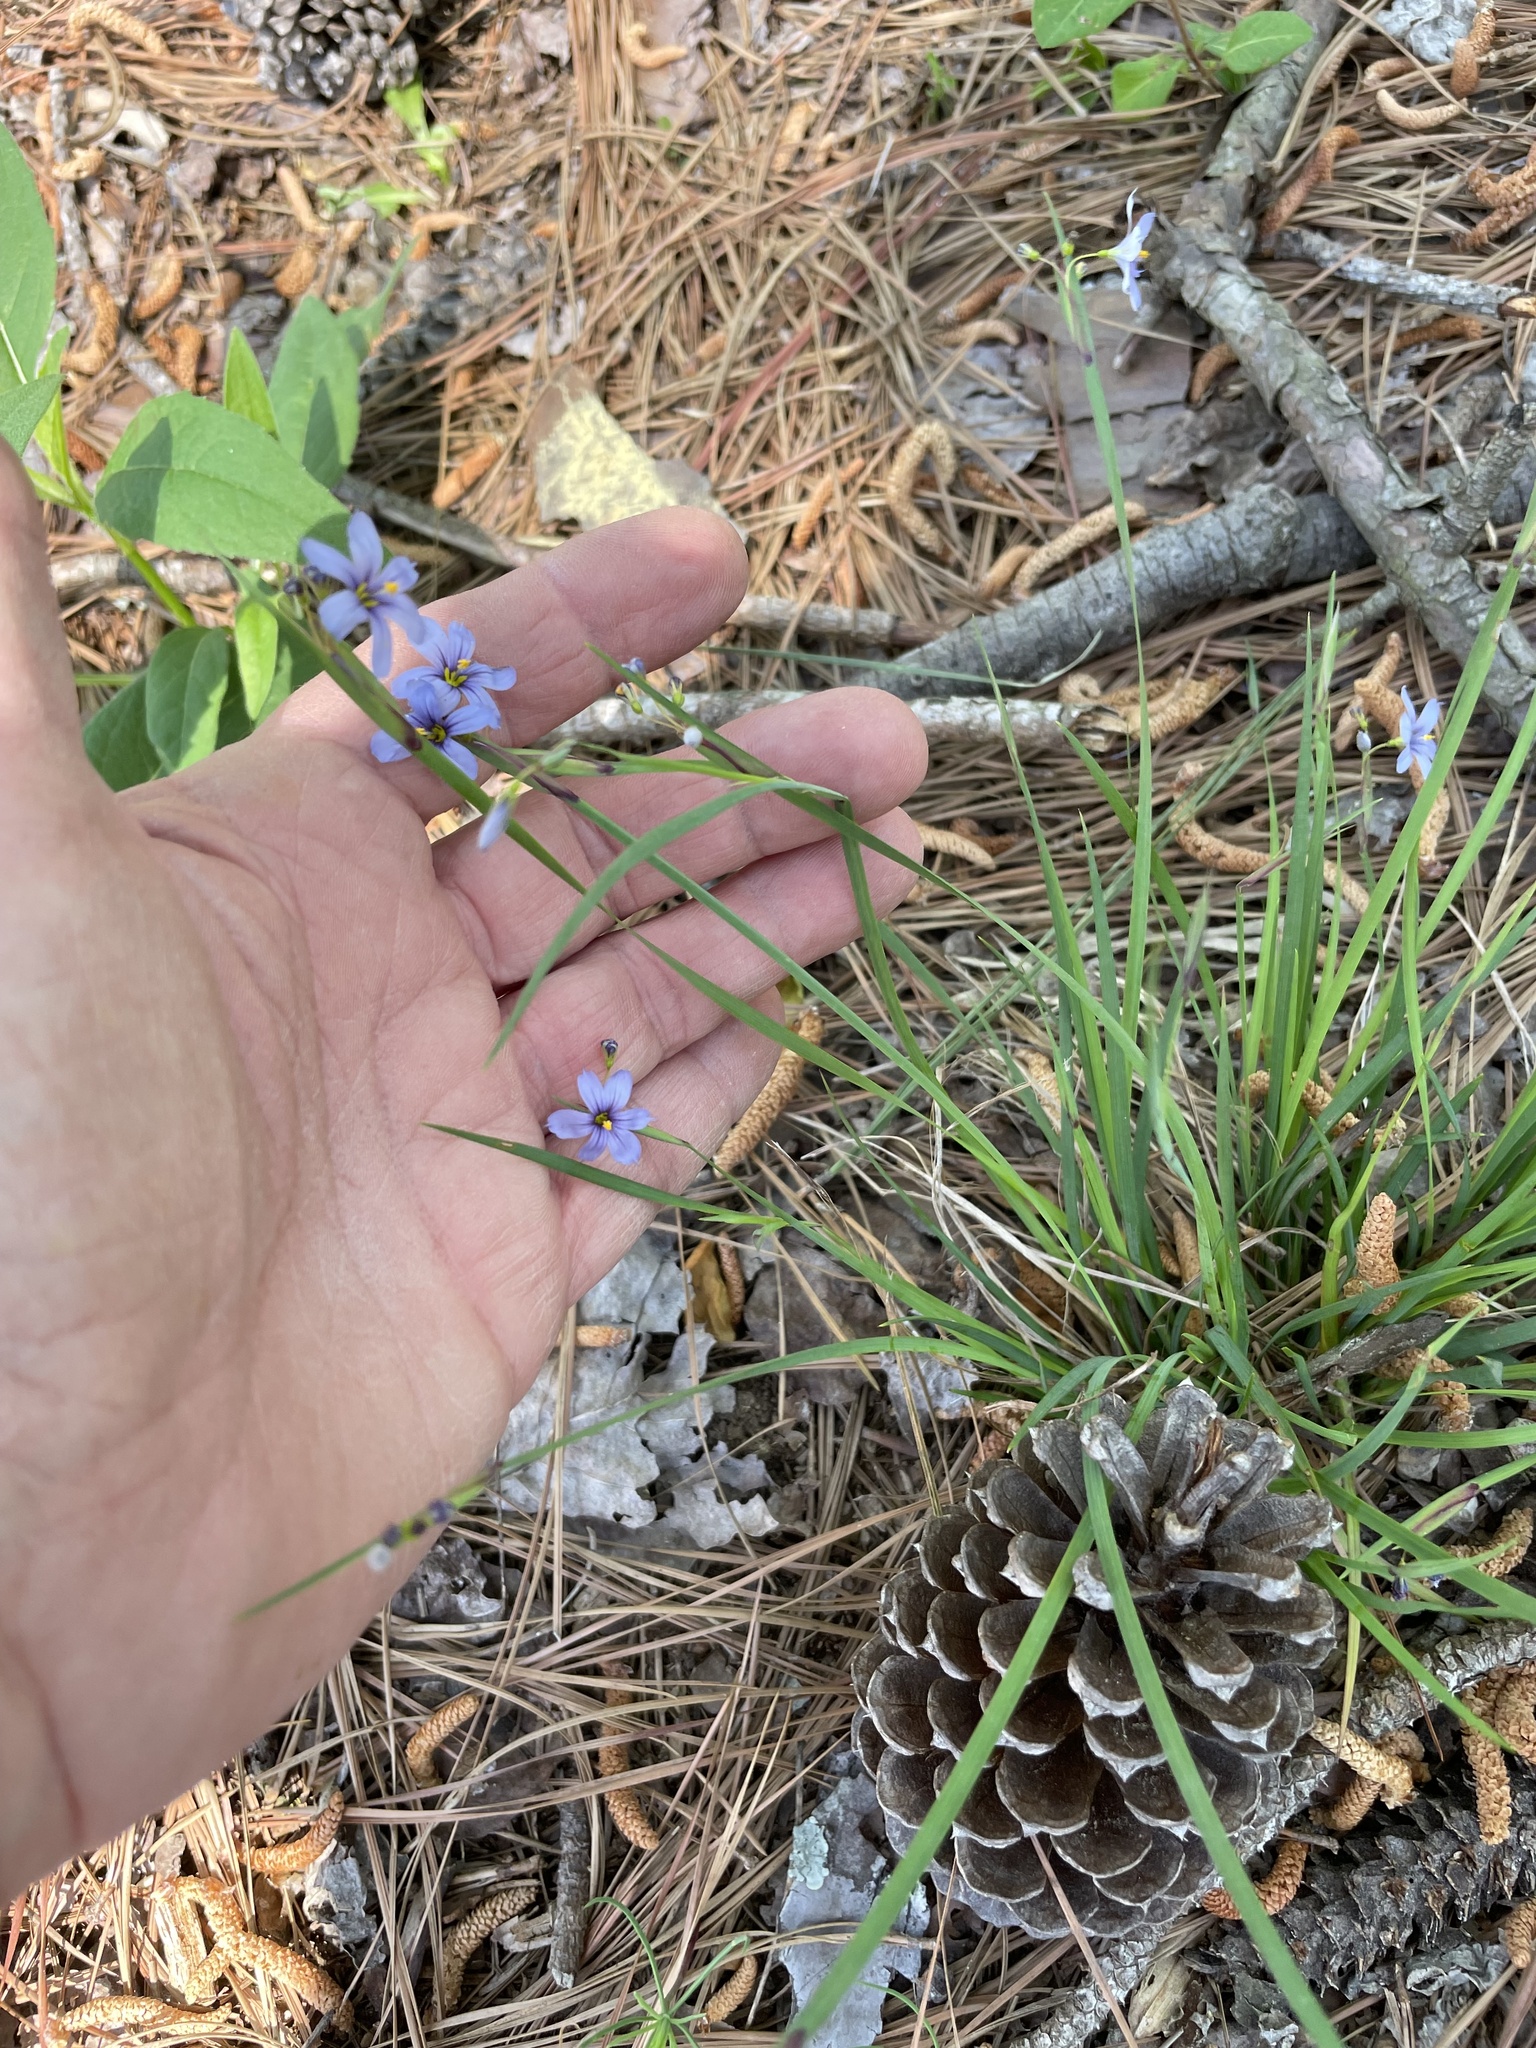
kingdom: Plantae
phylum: Tracheophyta
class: Liliopsida
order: Asparagales
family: Iridaceae
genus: Sisyrinchium
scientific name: Sisyrinchium angustifolium
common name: Narrow-leaf blue-eyed-grass
